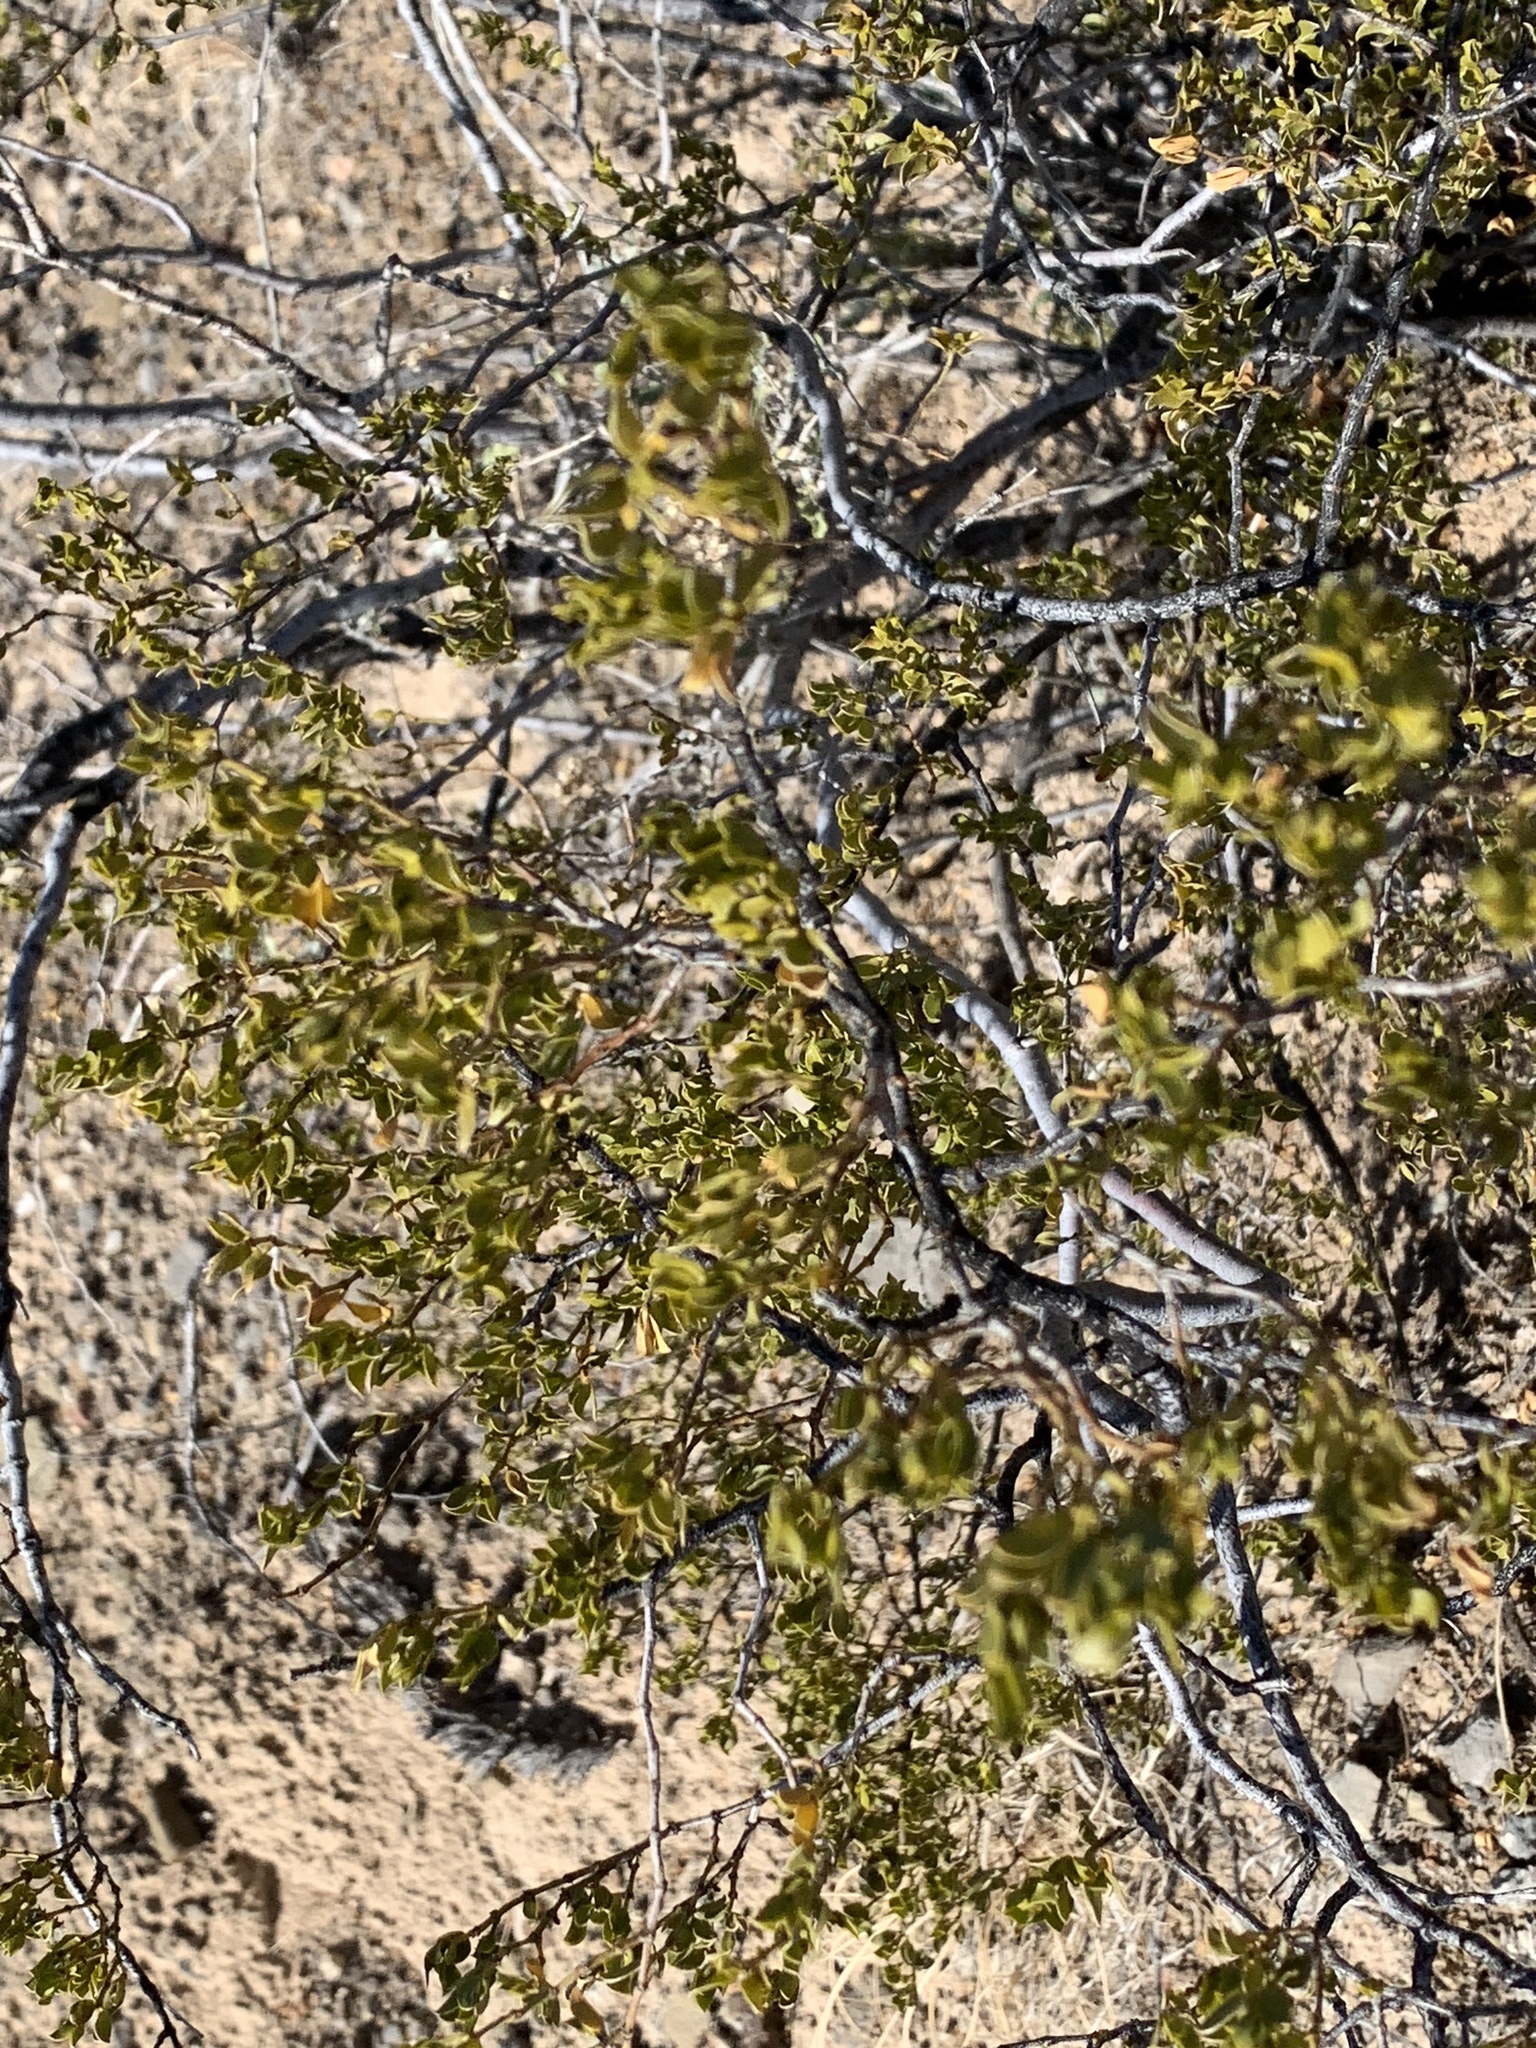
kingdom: Plantae
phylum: Tracheophyta
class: Magnoliopsida
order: Zygophyllales
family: Zygophyllaceae
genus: Larrea
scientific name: Larrea tridentata
